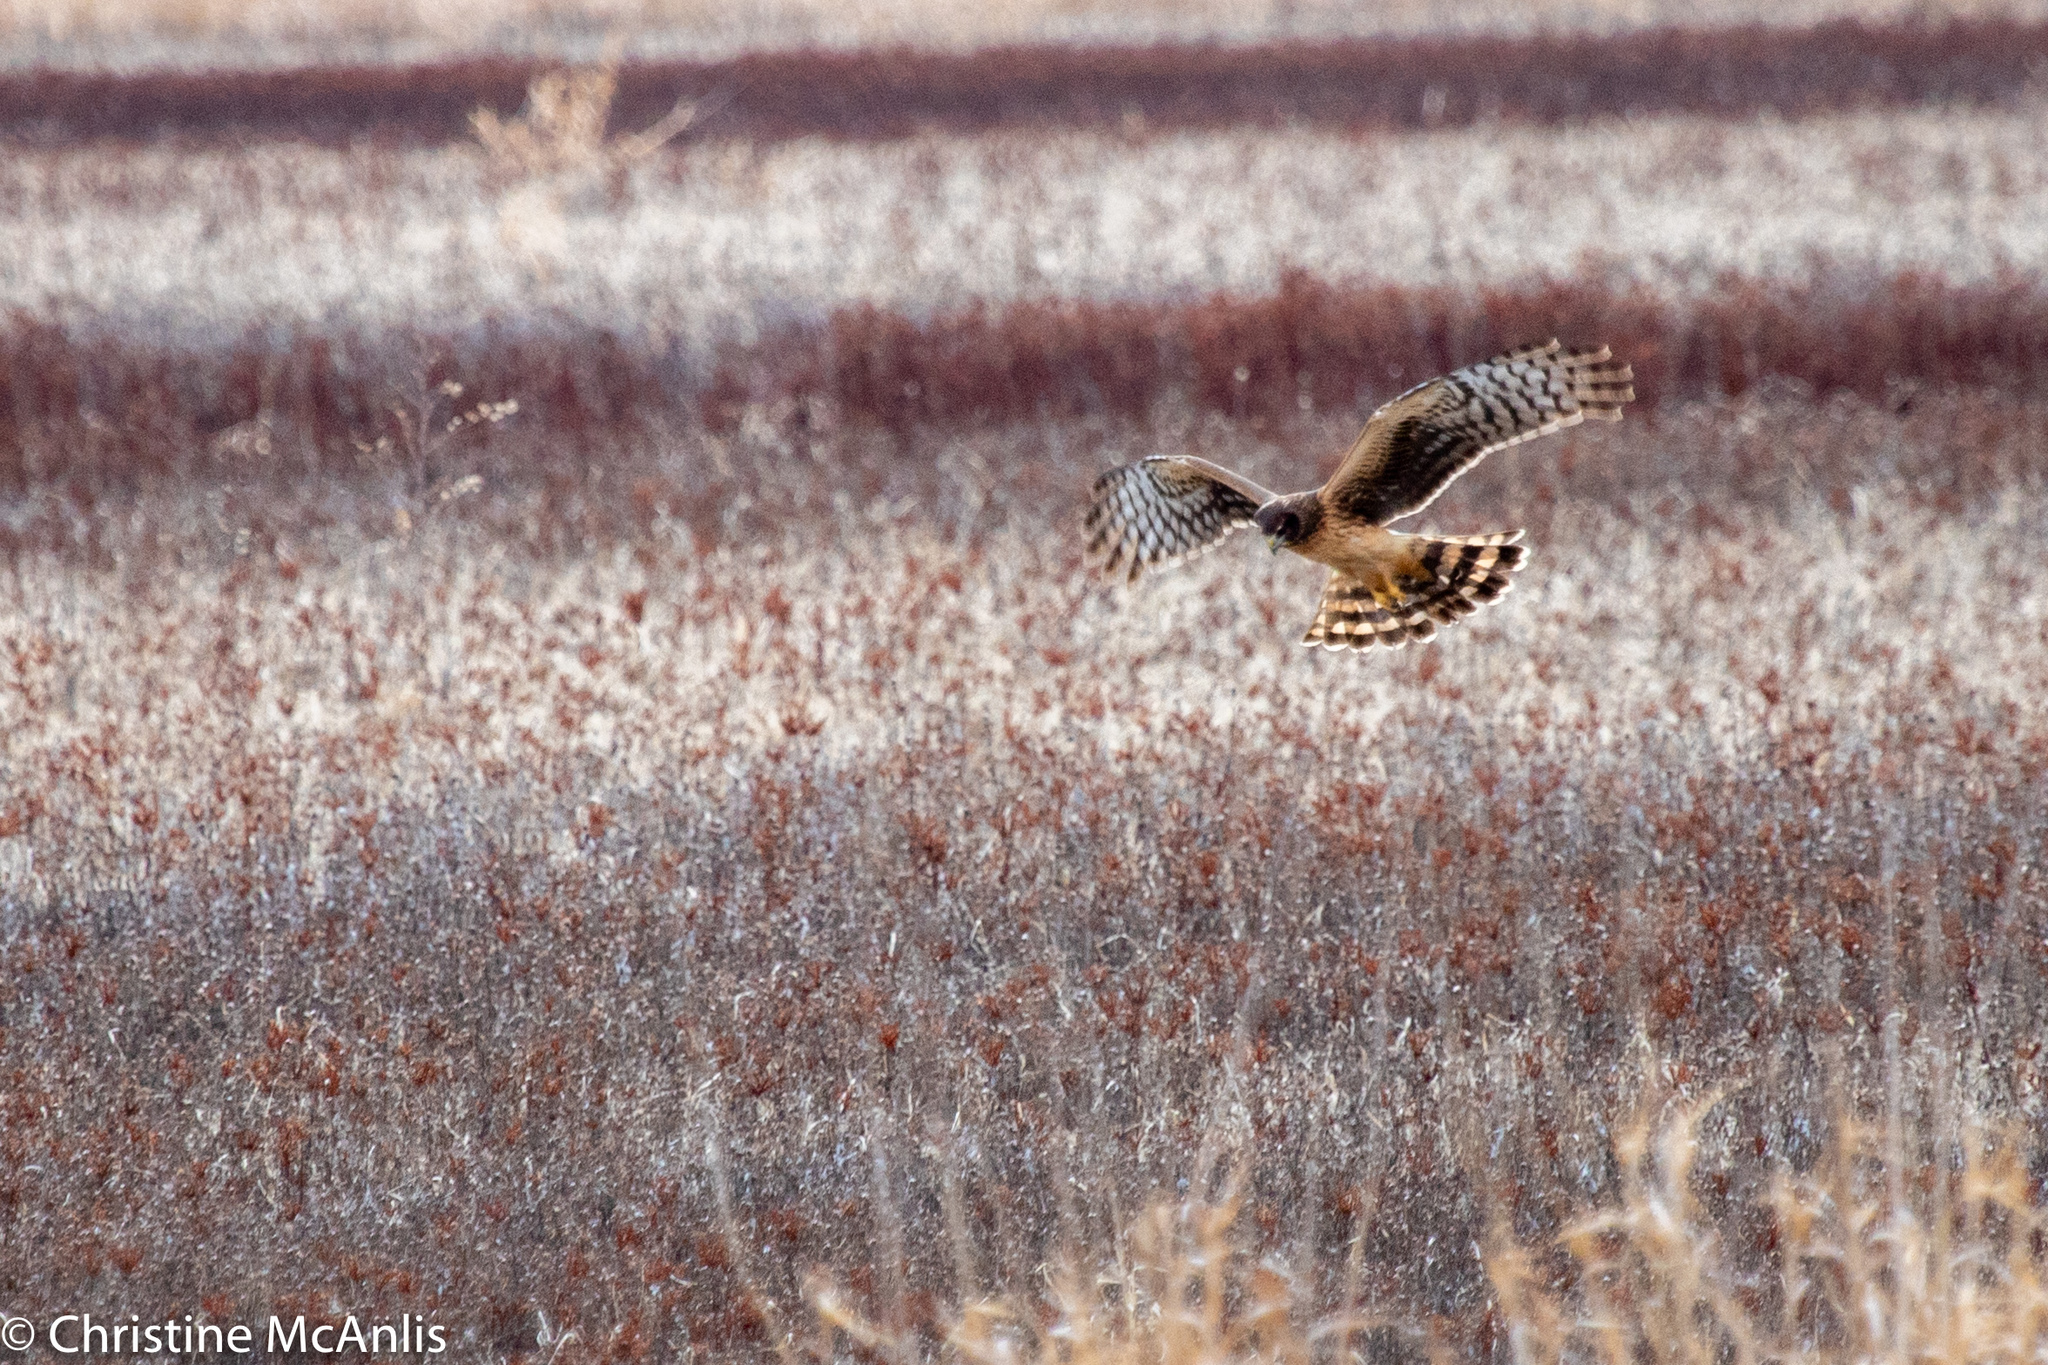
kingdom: Animalia
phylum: Chordata
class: Aves
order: Accipitriformes
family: Accipitridae
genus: Circus
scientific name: Circus cyaneus
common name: Hen harrier
